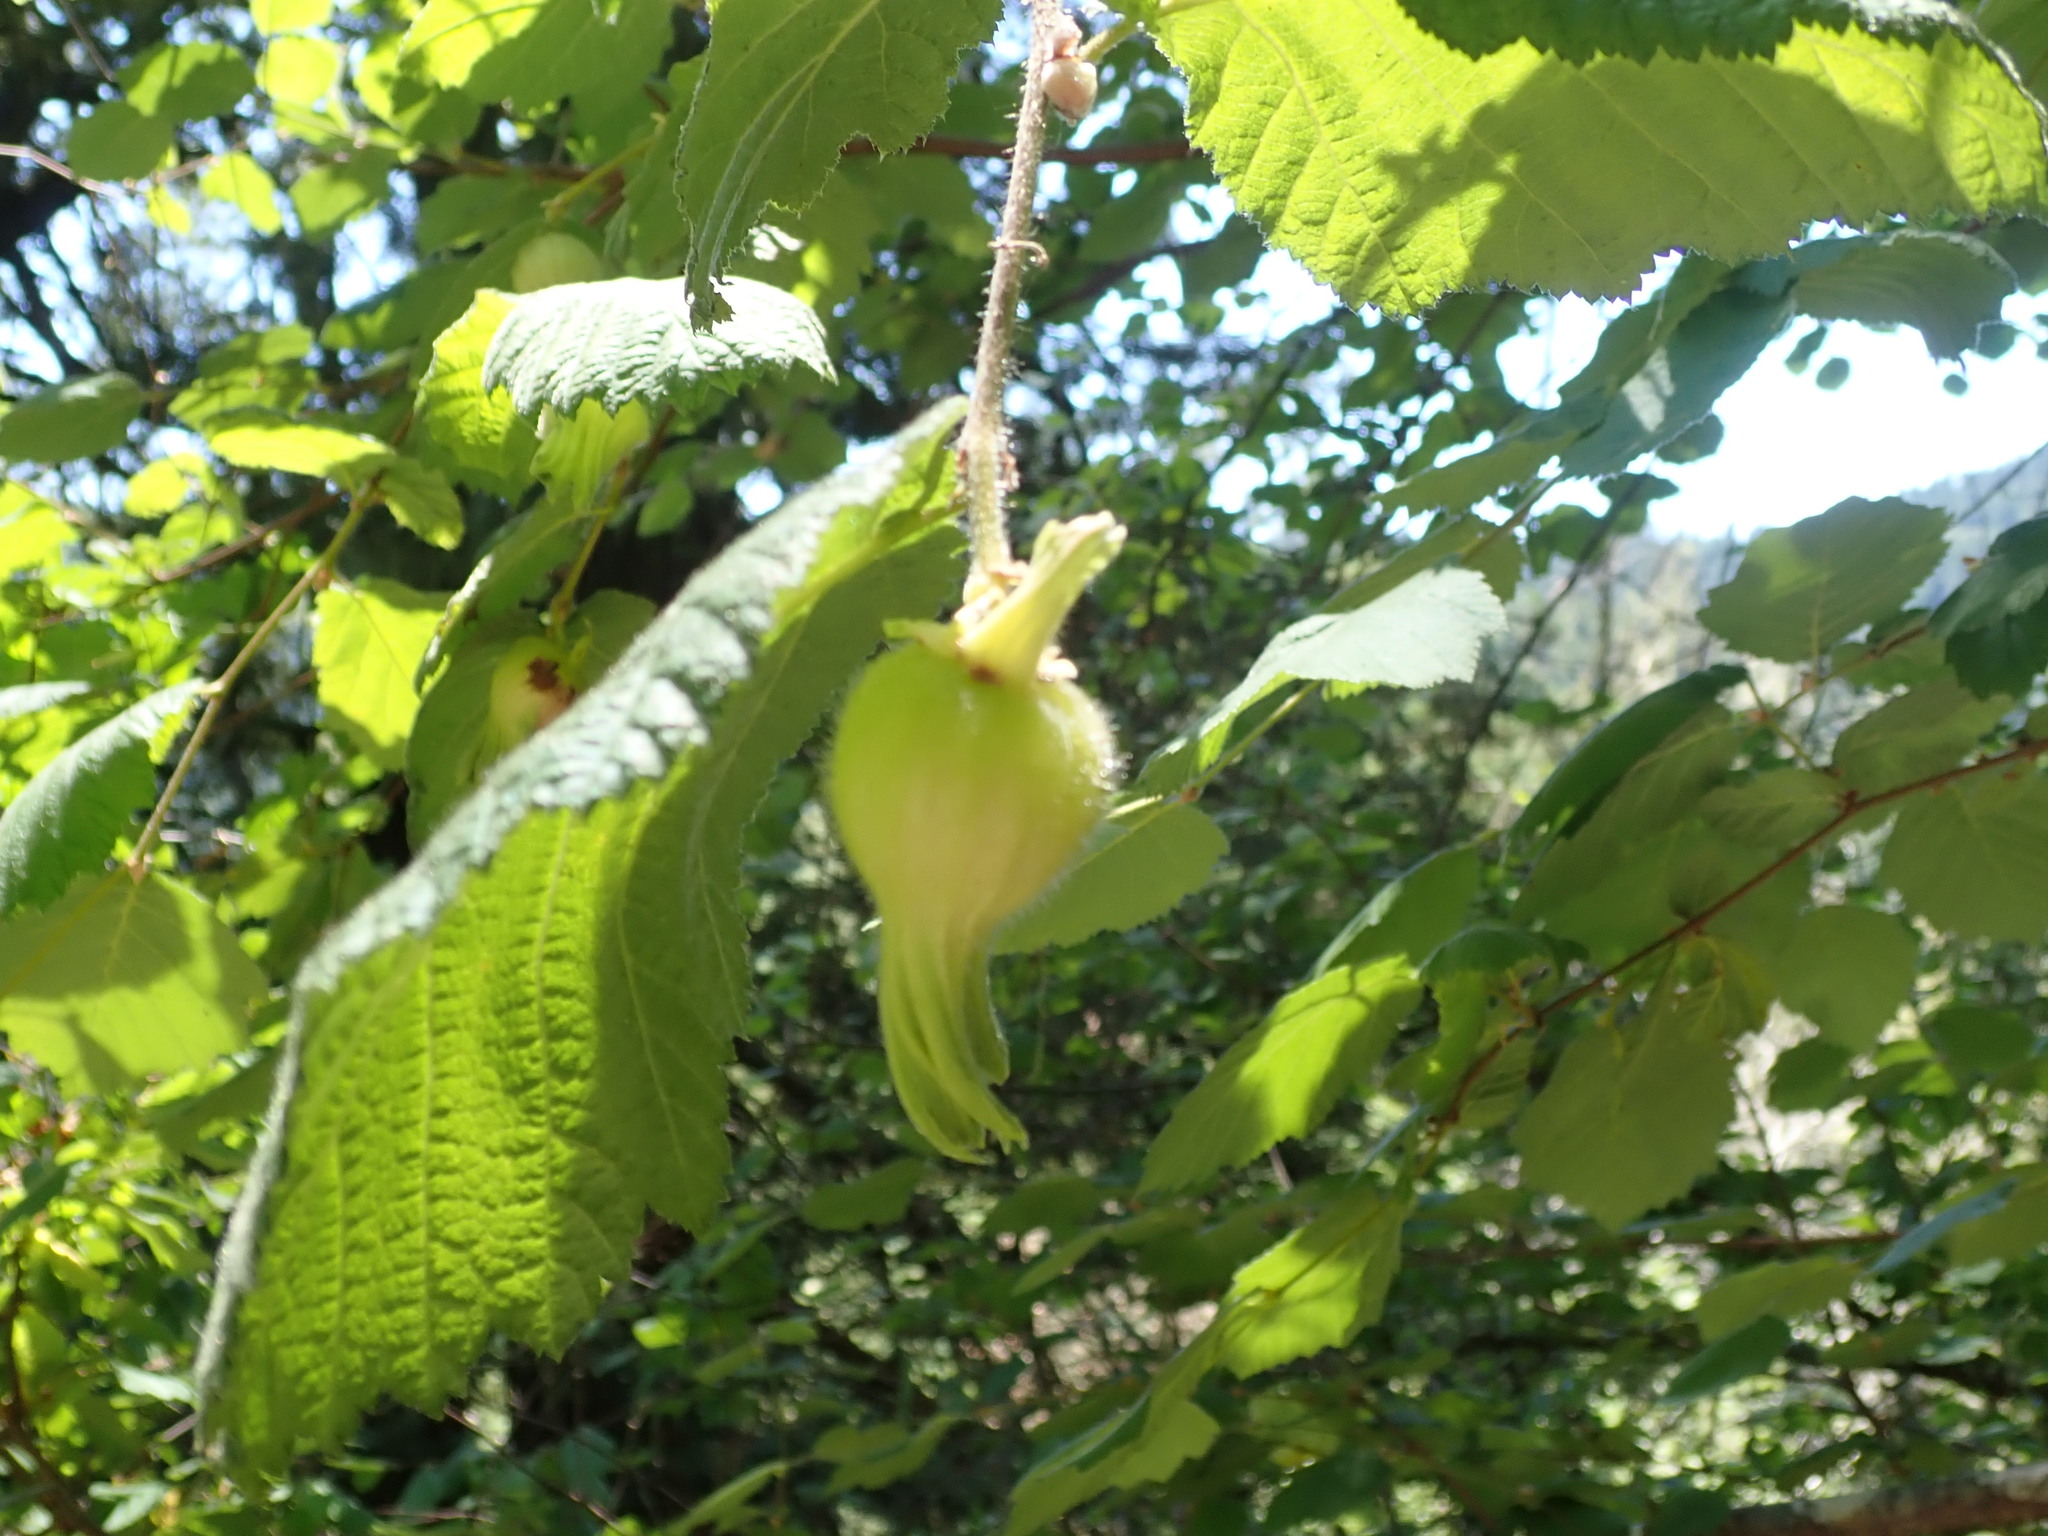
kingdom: Plantae
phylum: Tracheophyta
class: Magnoliopsida
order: Fagales
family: Betulaceae
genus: Corylus
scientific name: Corylus cornuta
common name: Beaked hazel
